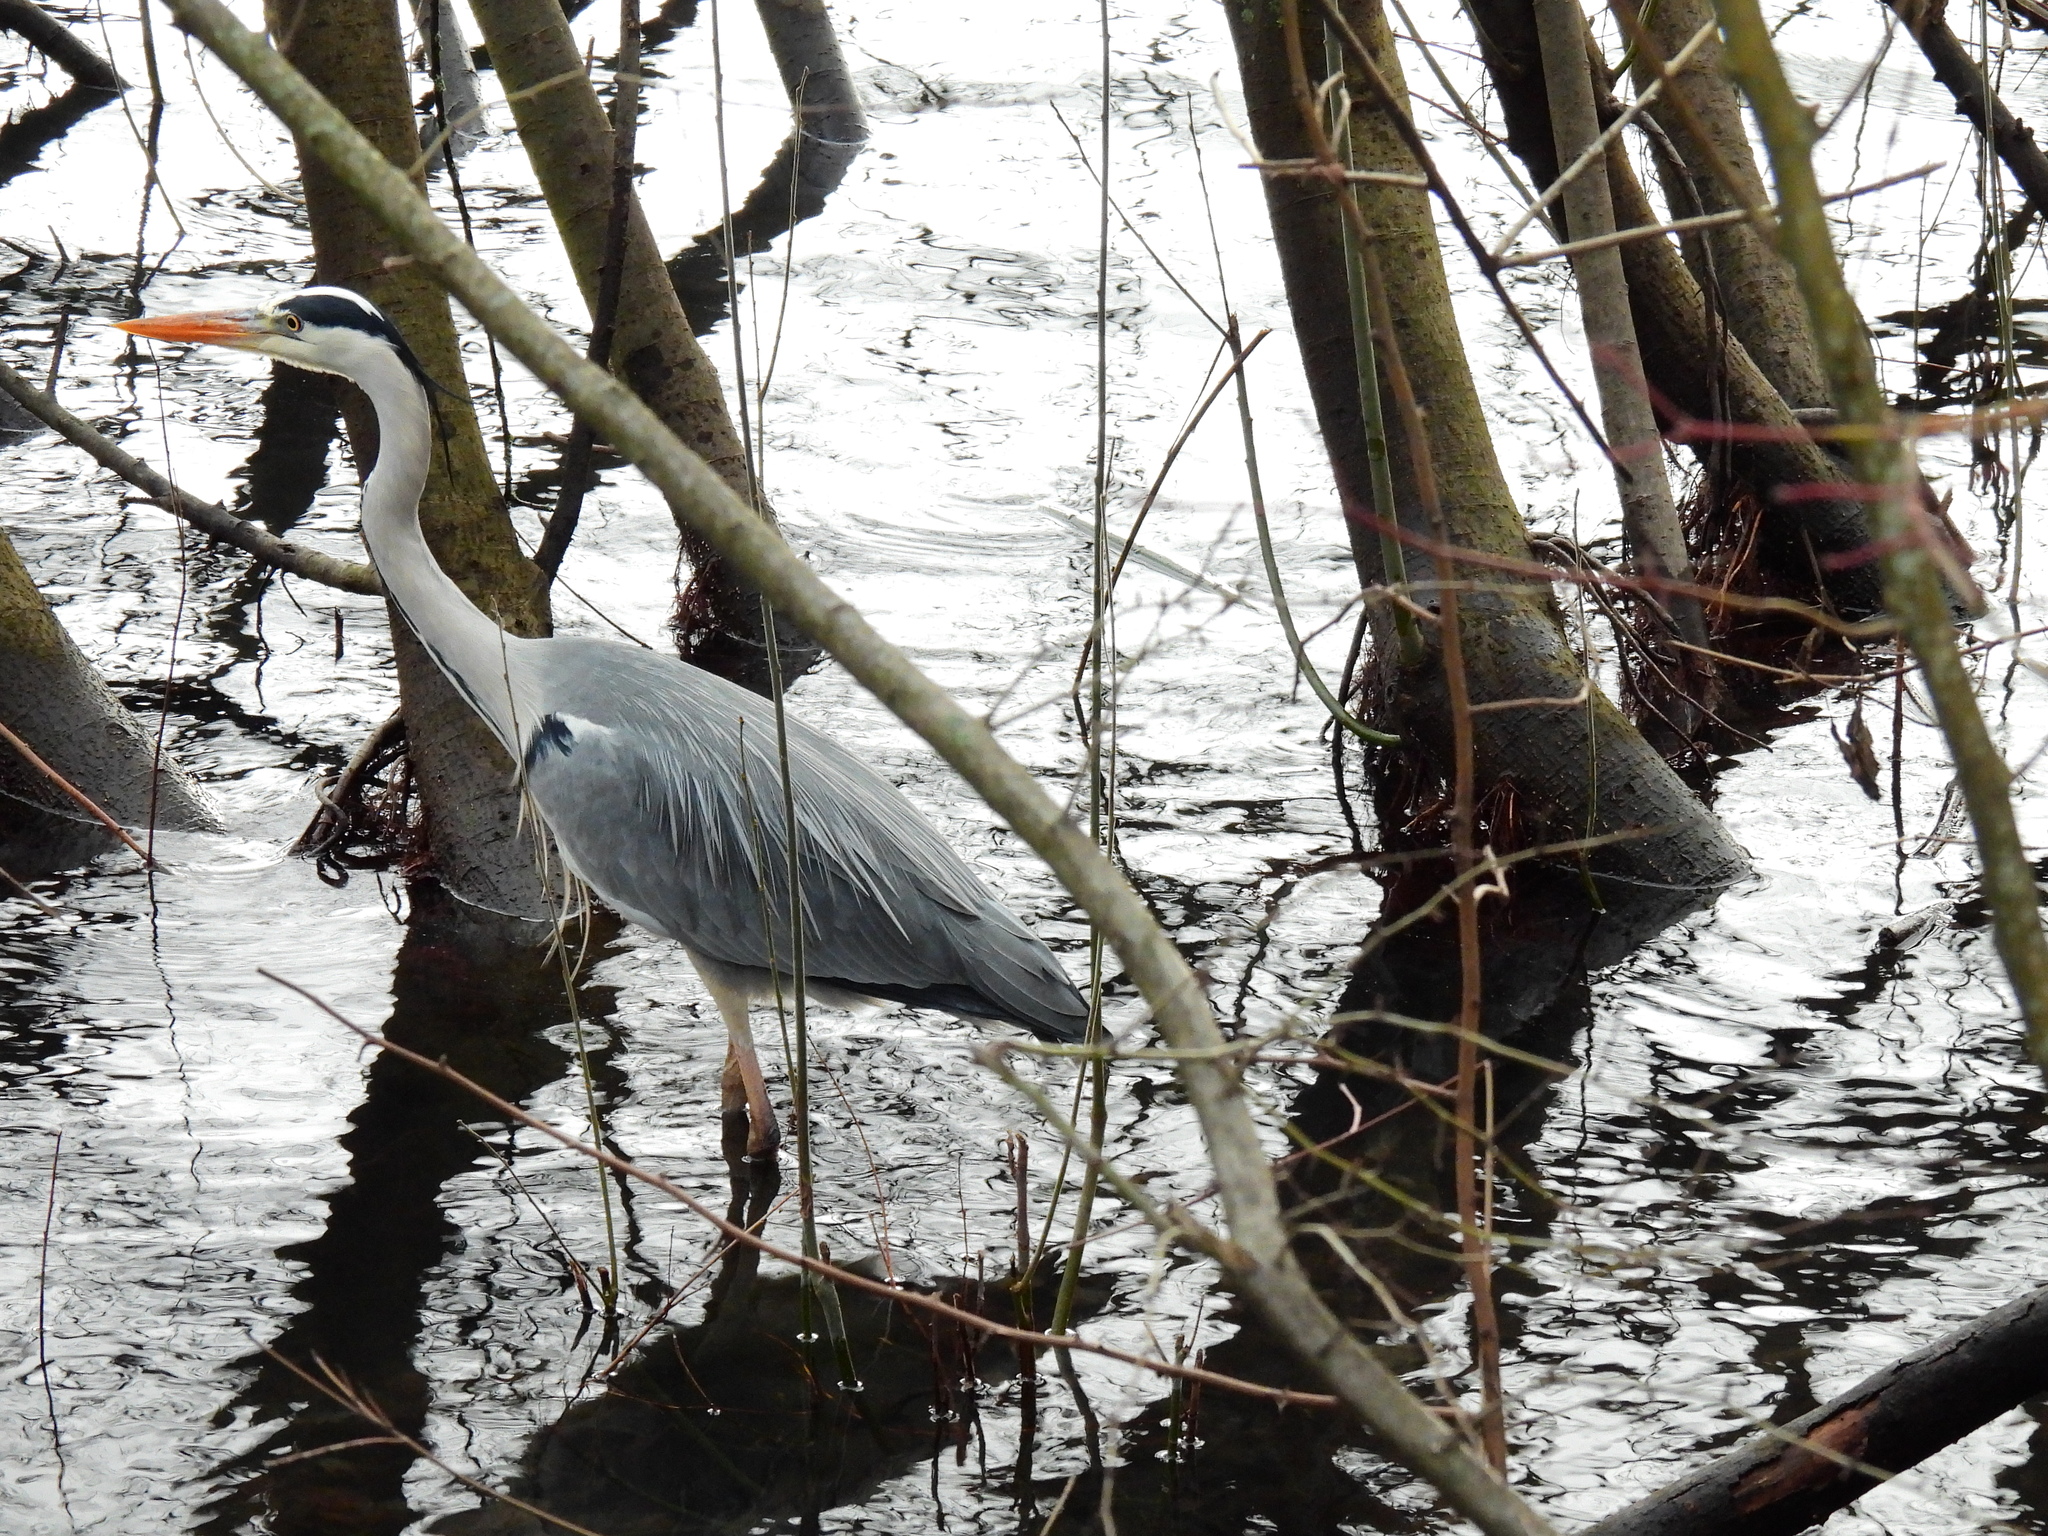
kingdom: Animalia
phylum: Chordata
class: Aves
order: Pelecaniformes
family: Ardeidae
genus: Ardea
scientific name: Ardea cinerea
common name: Grey heron
